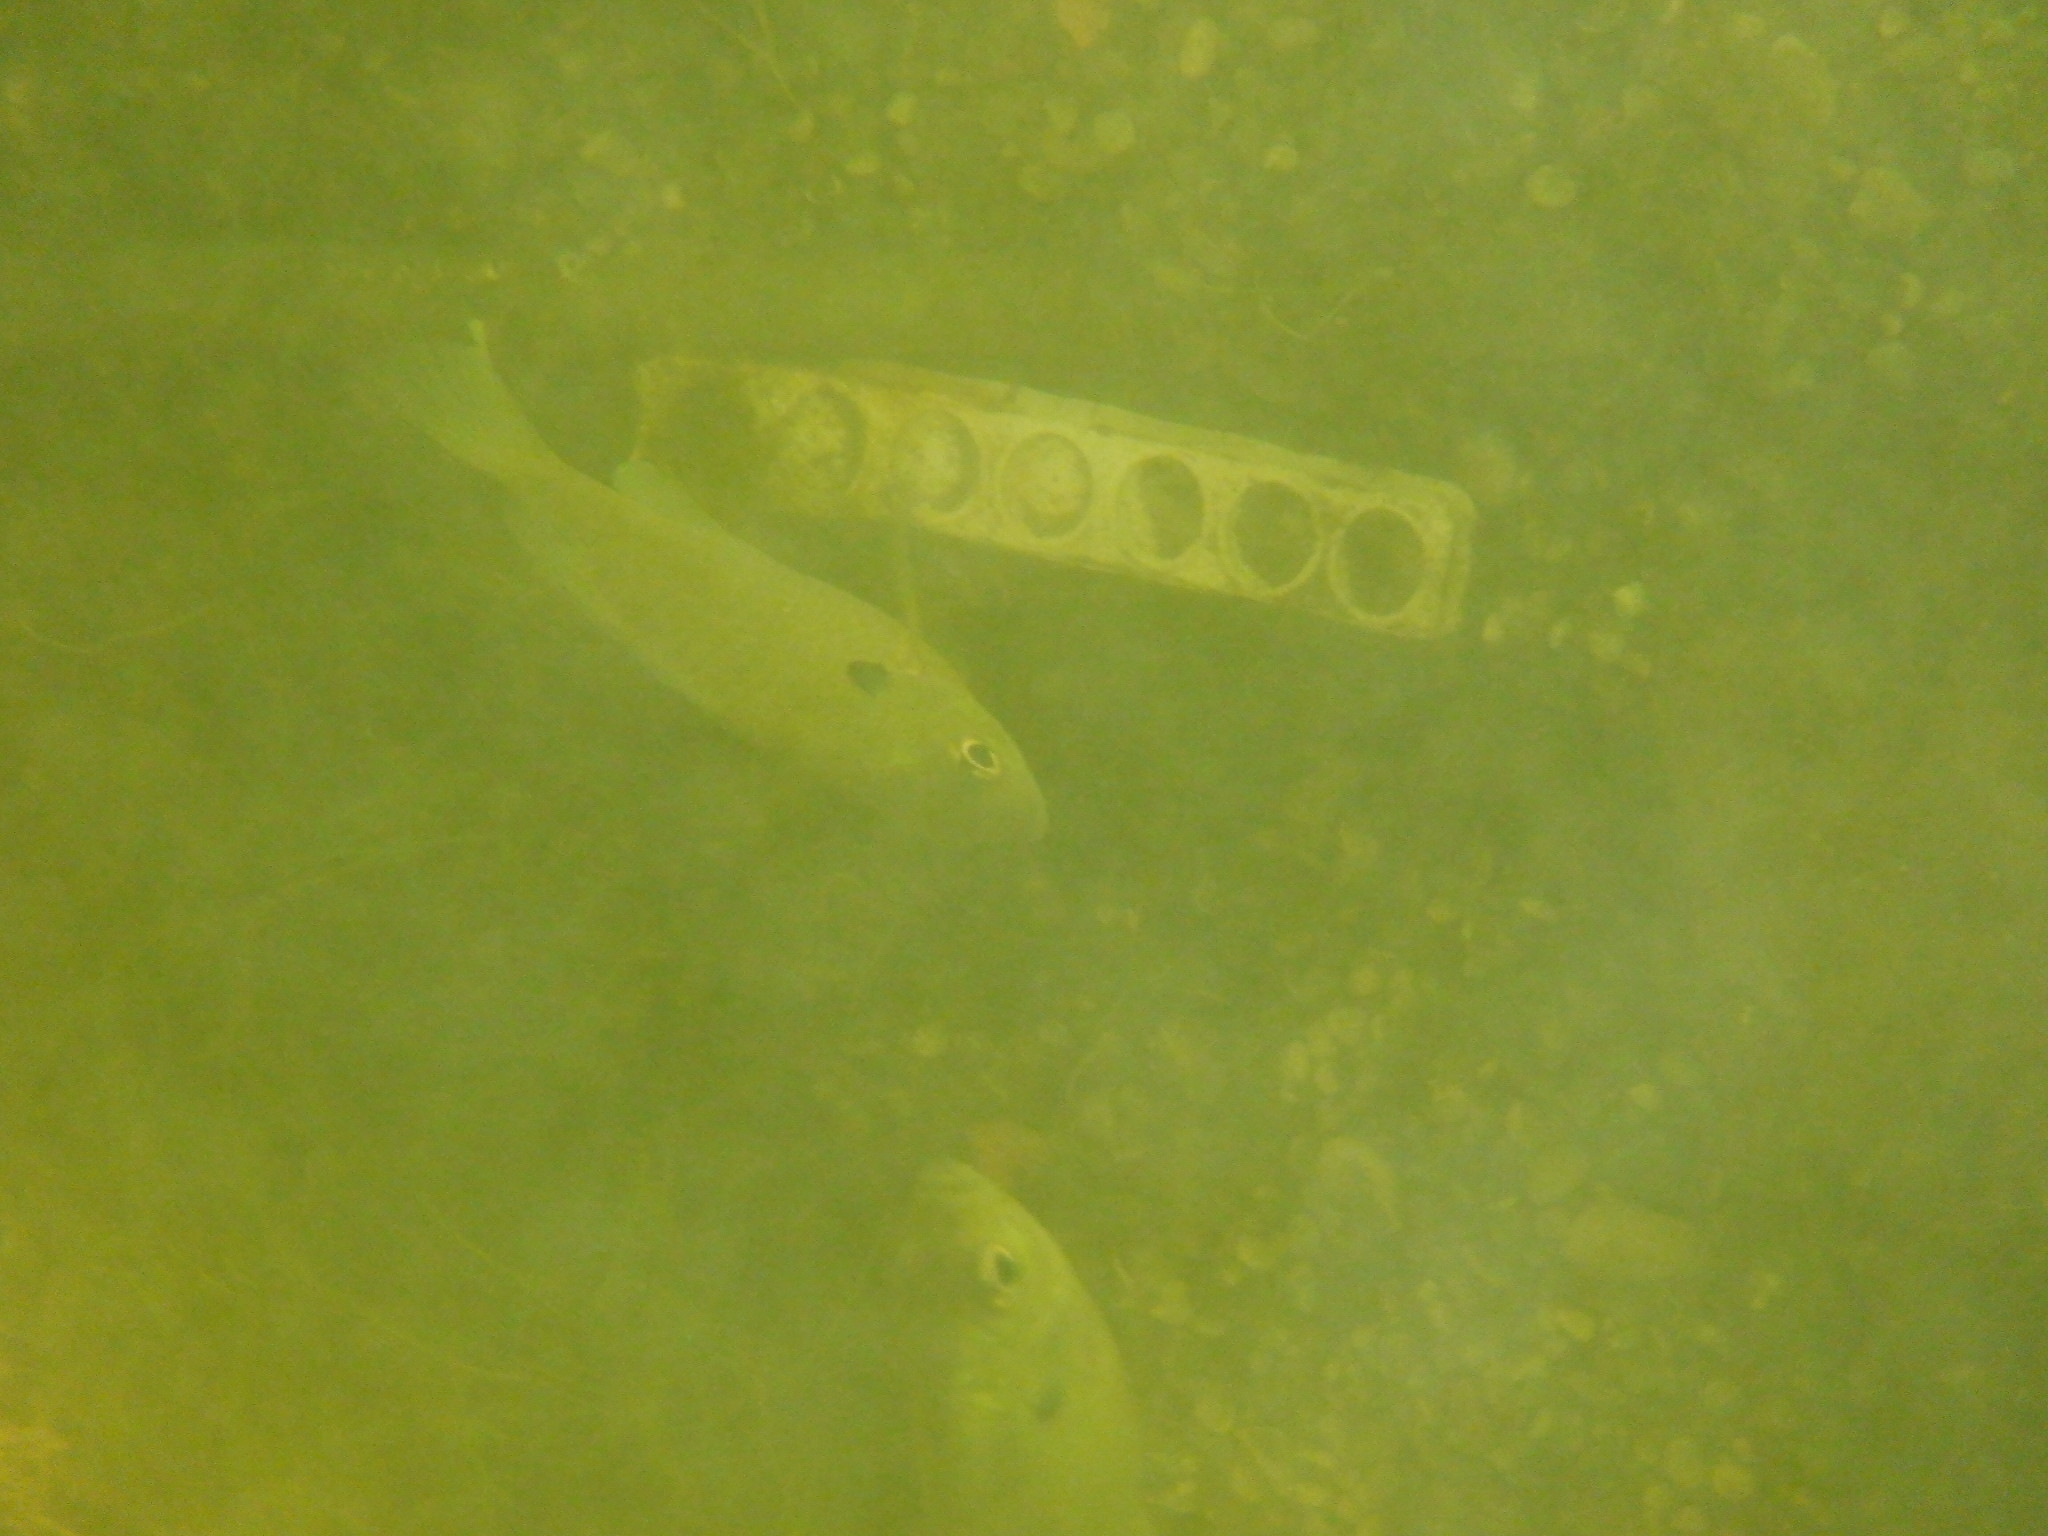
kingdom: Animalia
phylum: Chordata
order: Perciformes
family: Centrarchidae
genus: Lepomis
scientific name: Lepomis macrochirus
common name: Bluegill
